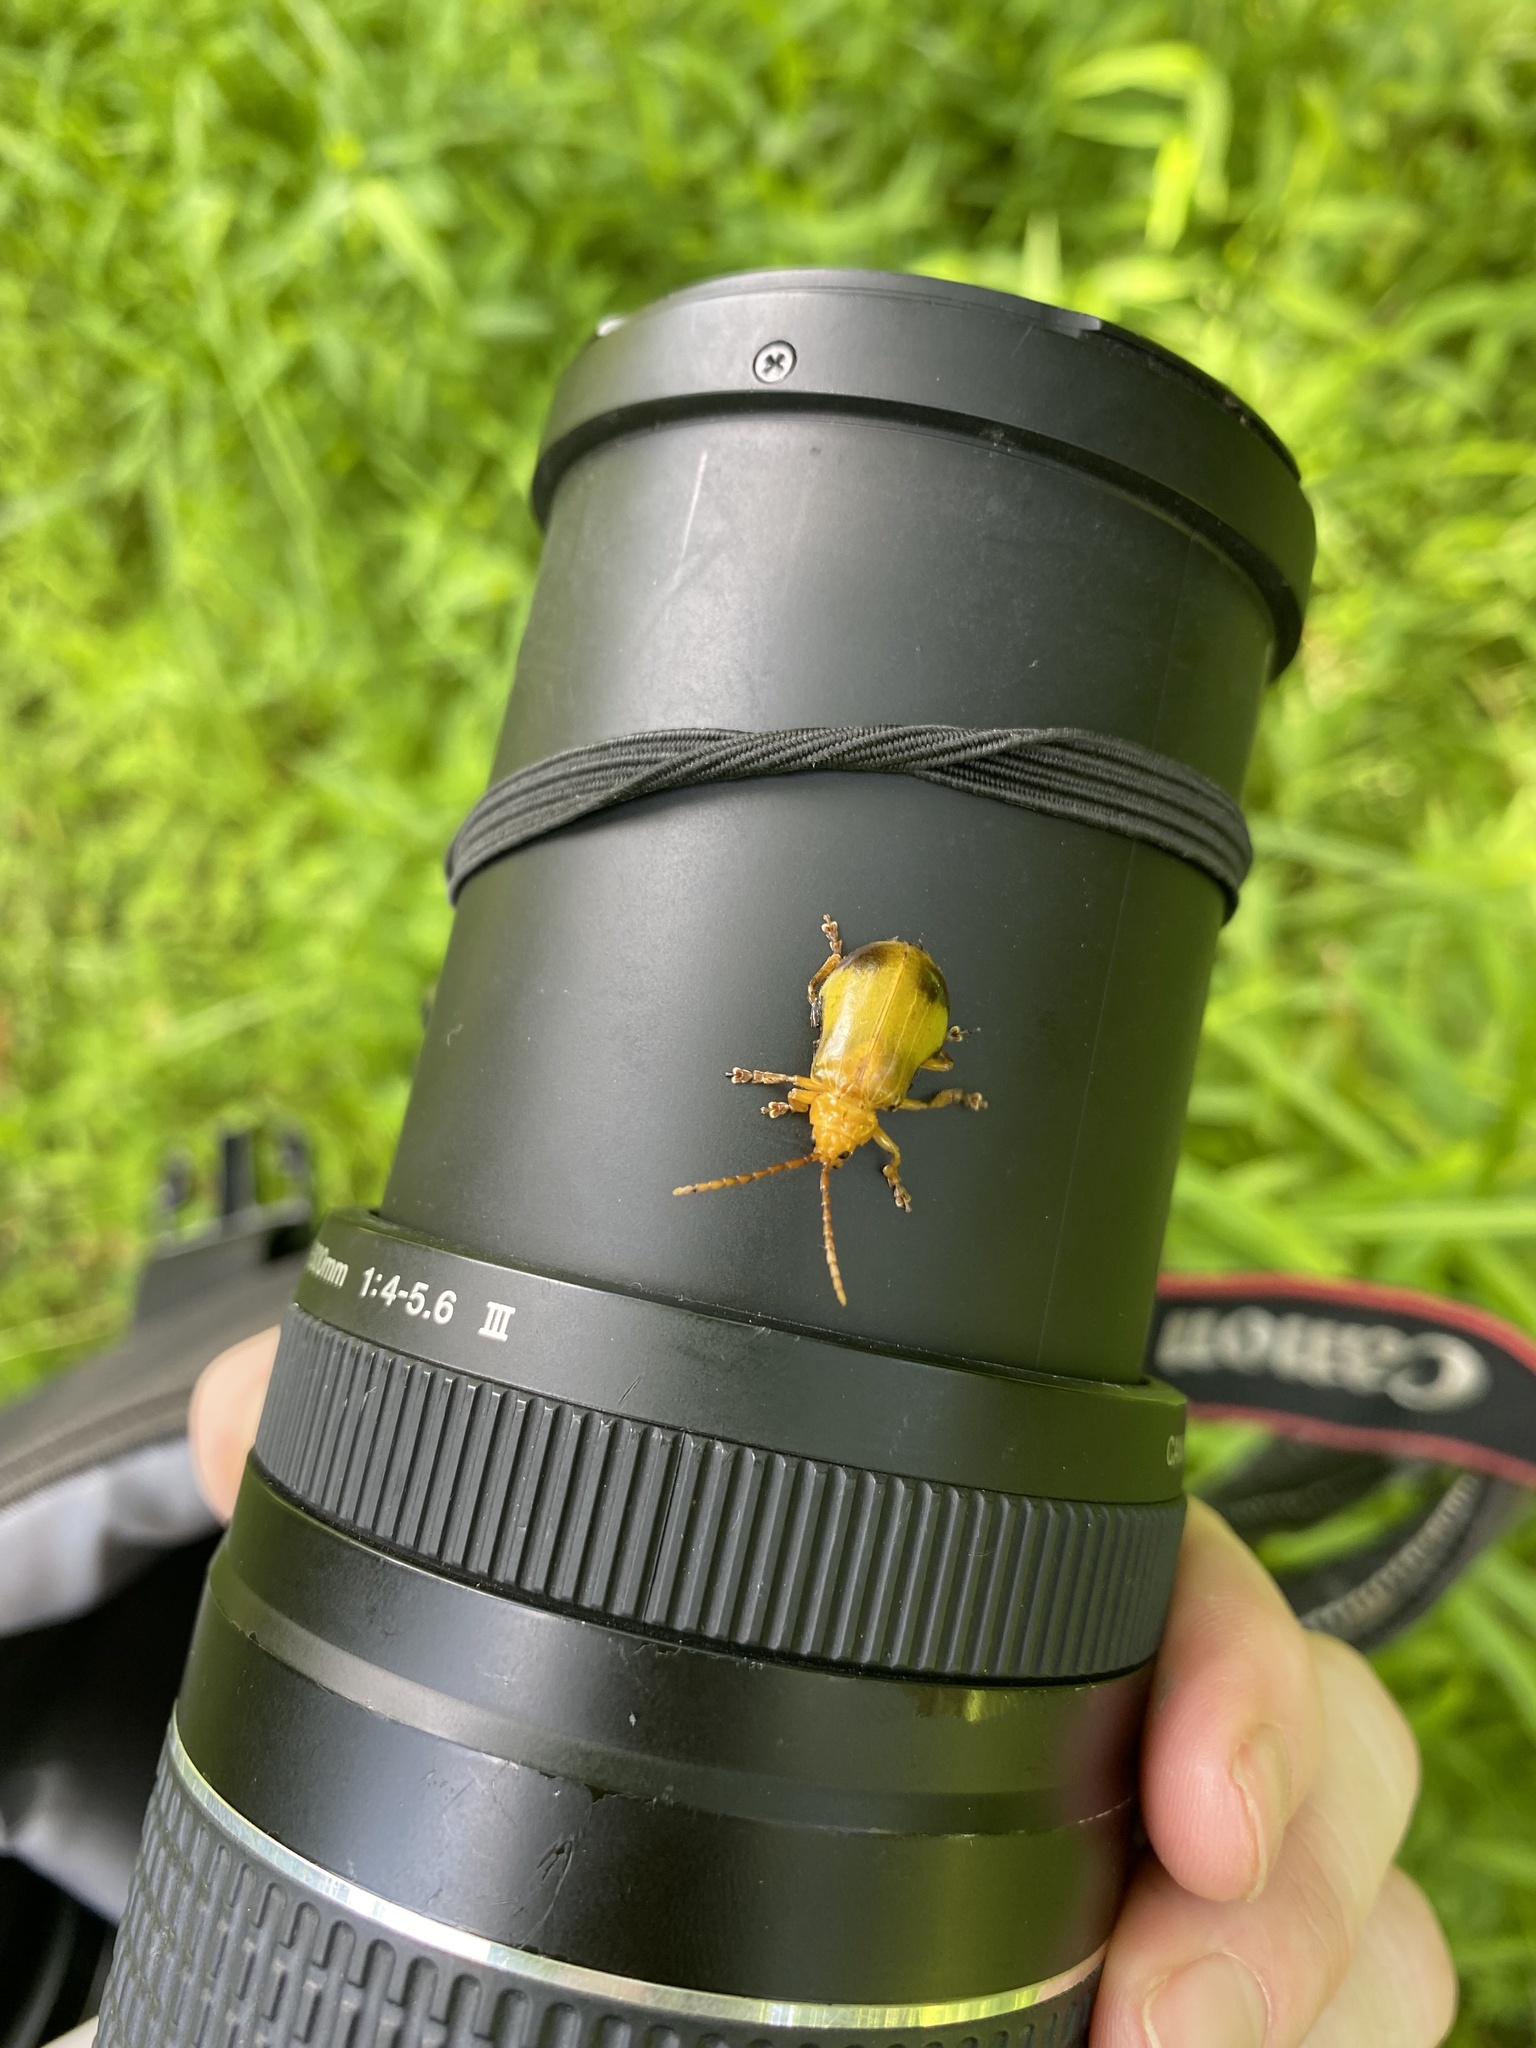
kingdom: Animalia
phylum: Arthropoda
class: Insecta
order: Coleoptera
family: Chrysomelidae
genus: Monocesta
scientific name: Monocesta coryli
